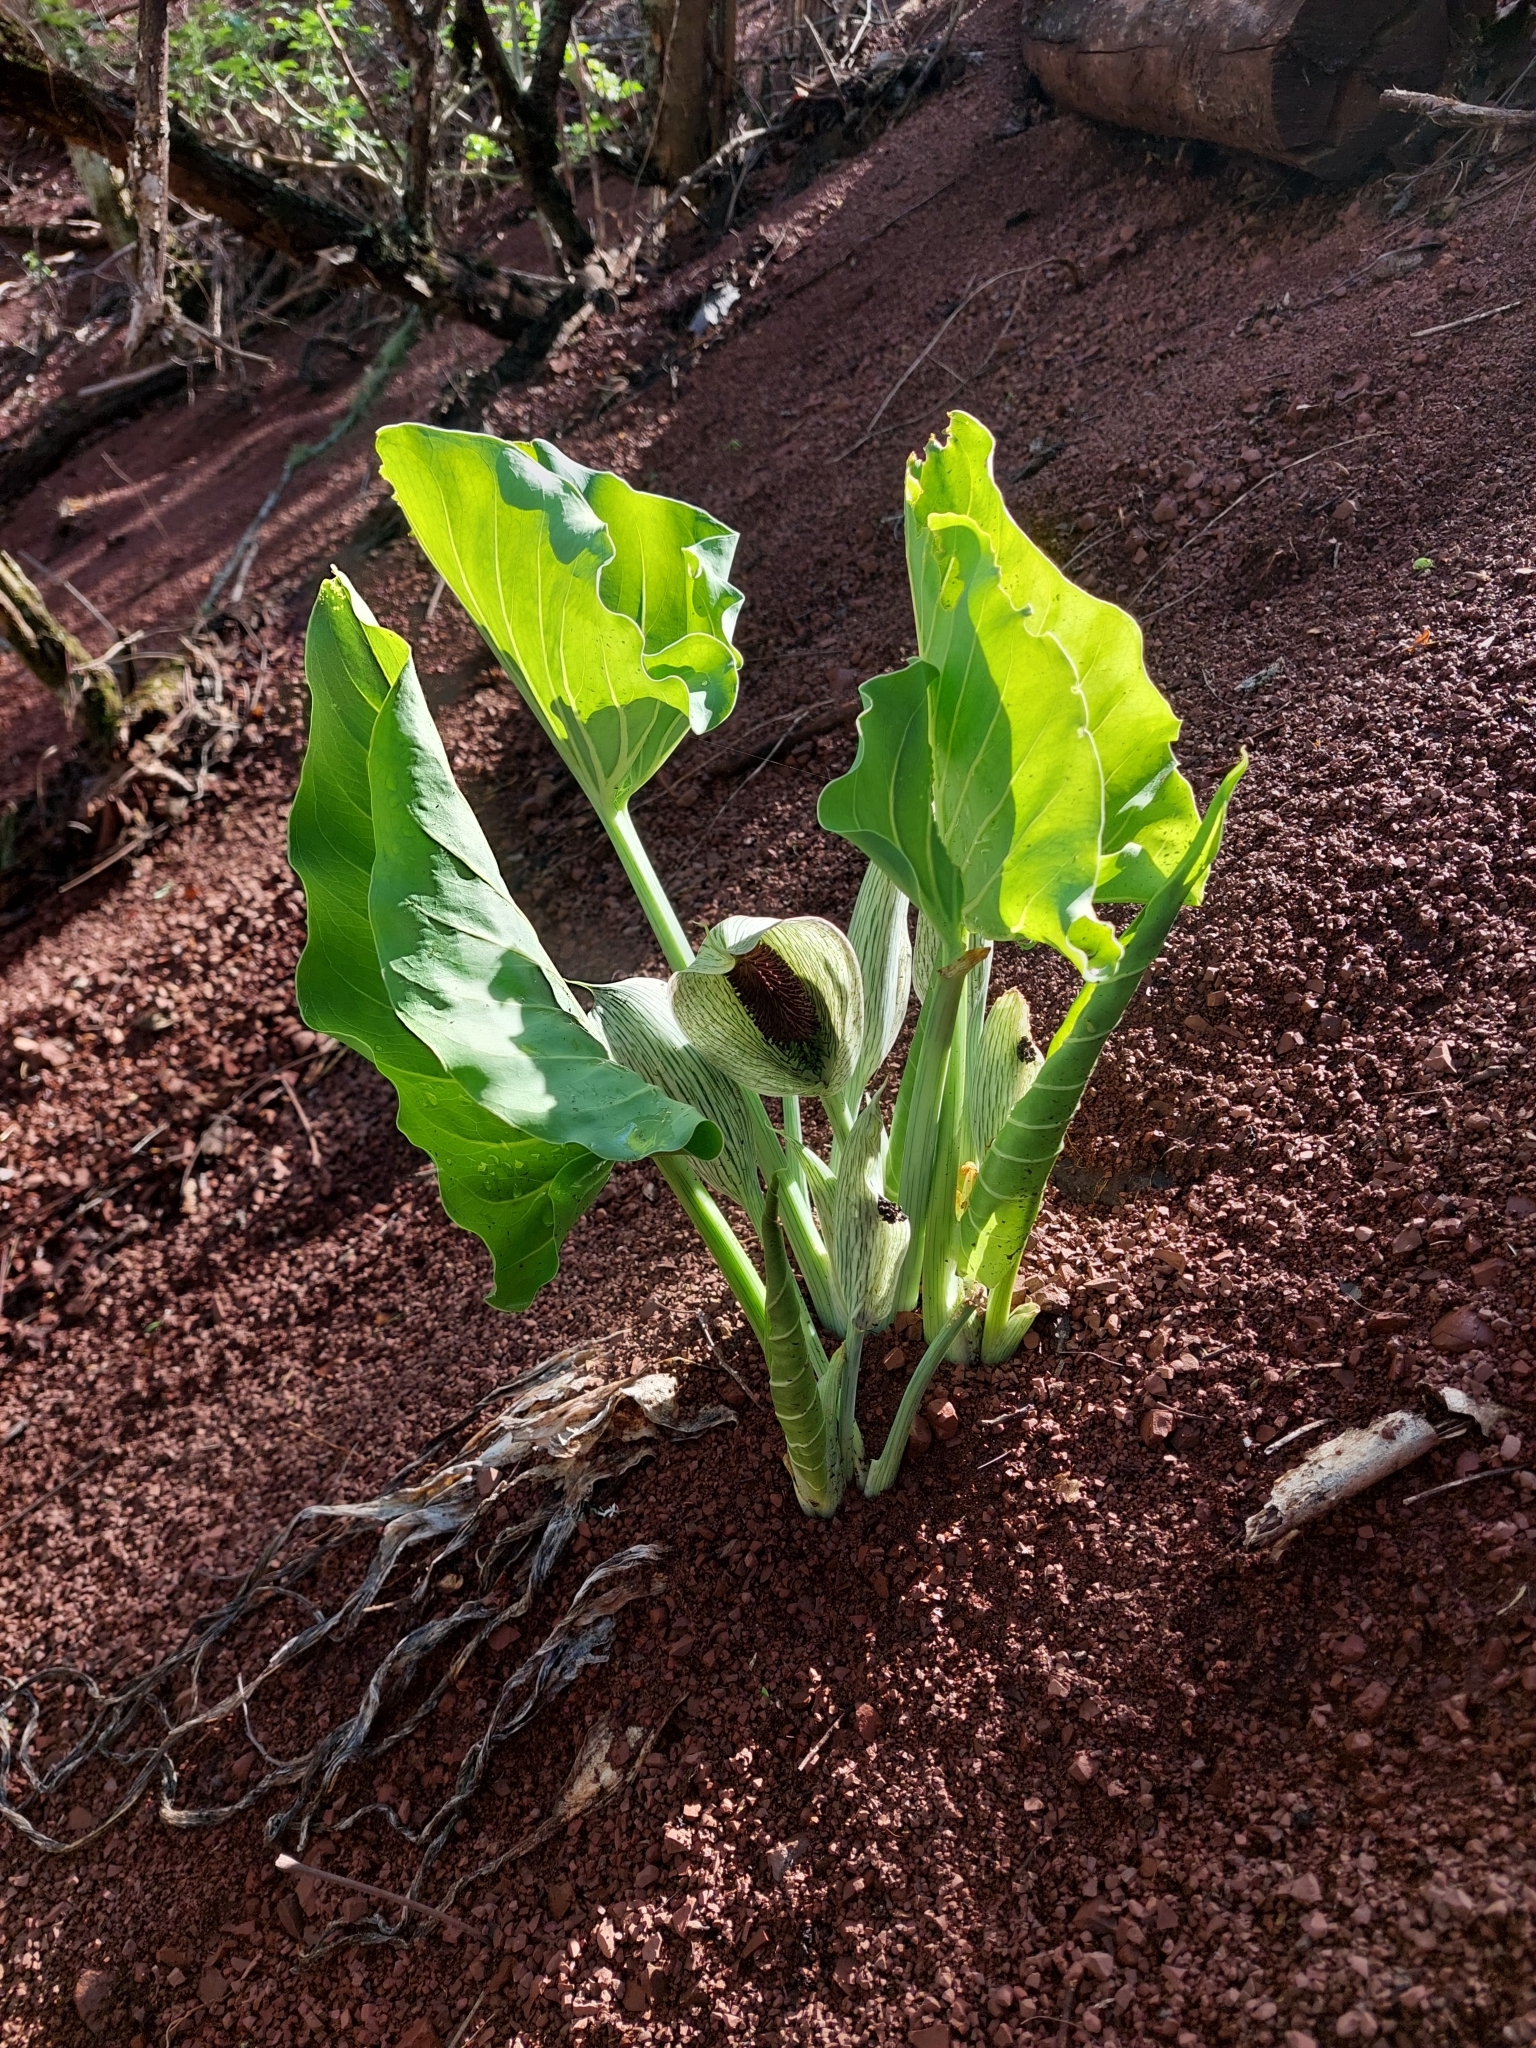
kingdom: Plantae
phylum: Tracheophyta
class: Liliopsida
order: Alismatales
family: Araceae
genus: Synandrospadix
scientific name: Synandrospadix vermitoxicus
